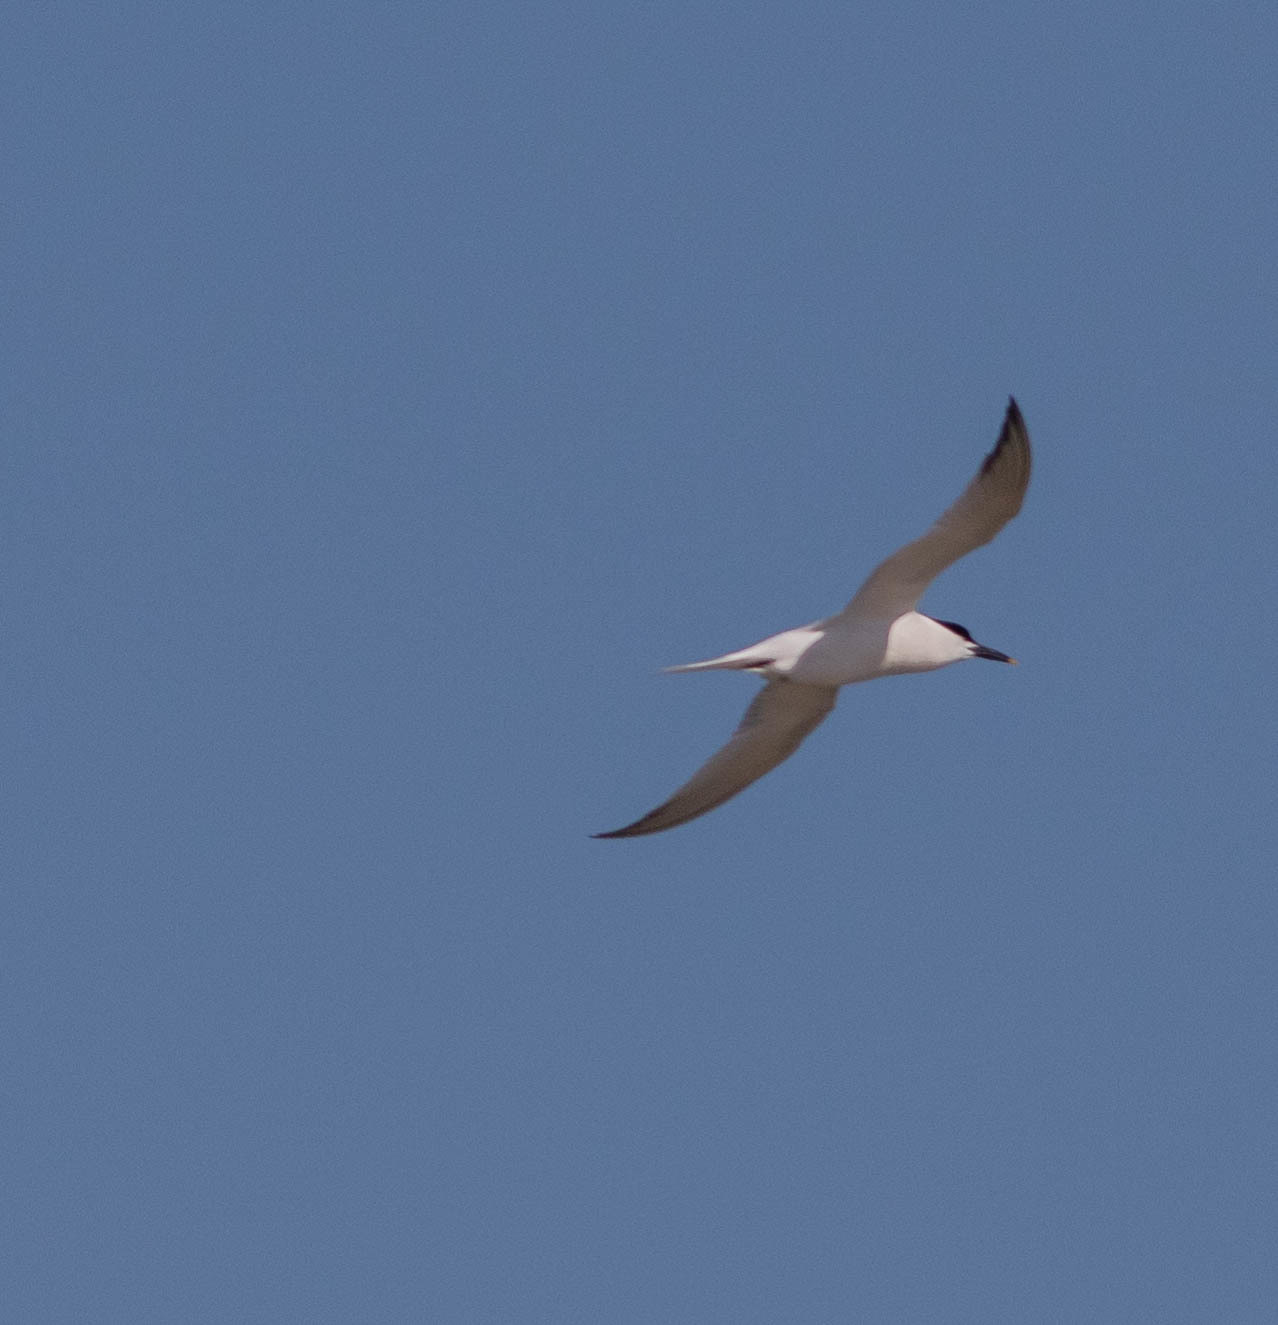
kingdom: Animalia
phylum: Chordata
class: Aves
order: Charadriiformes
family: Laridae
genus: Thalasseus
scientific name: Thalasseus sandvicensis
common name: Sandwich tern
